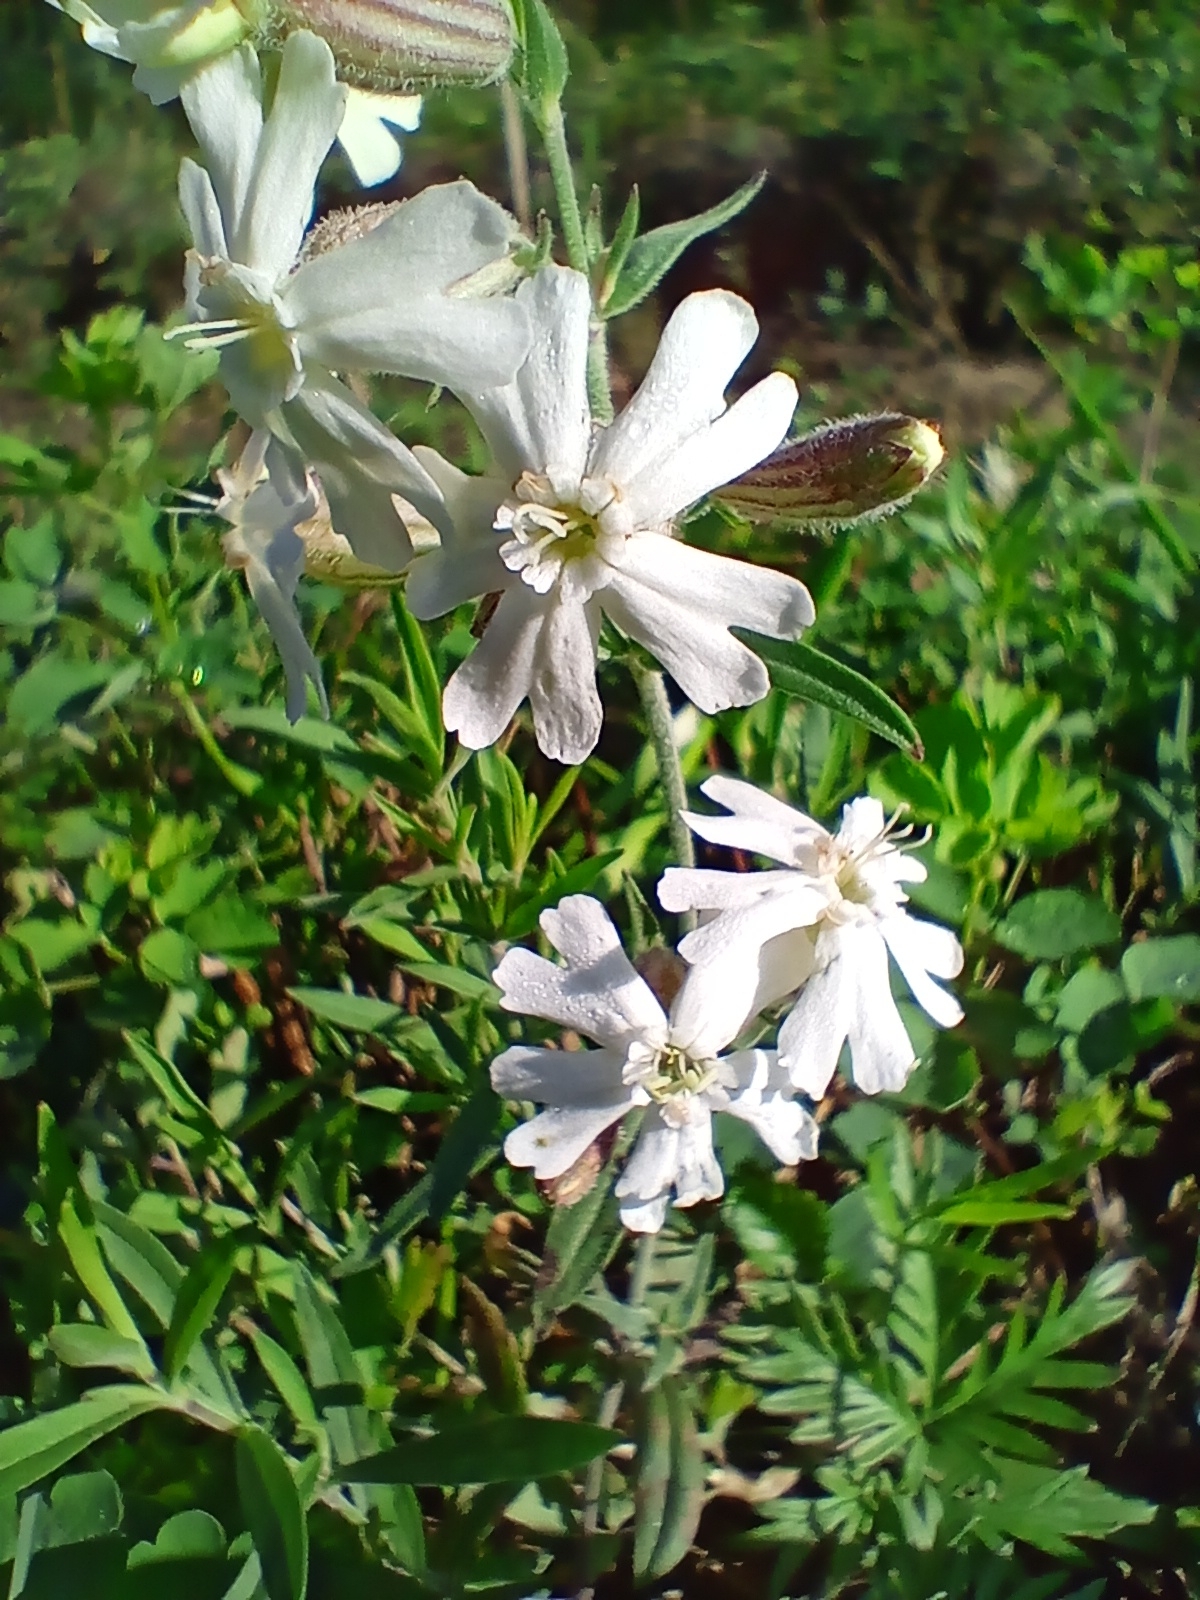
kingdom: Plantae
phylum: Tracheophyta
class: Magnoliopsida
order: Caryophyllales
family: Caryophyllaceae
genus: Silene
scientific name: Silene amoena
